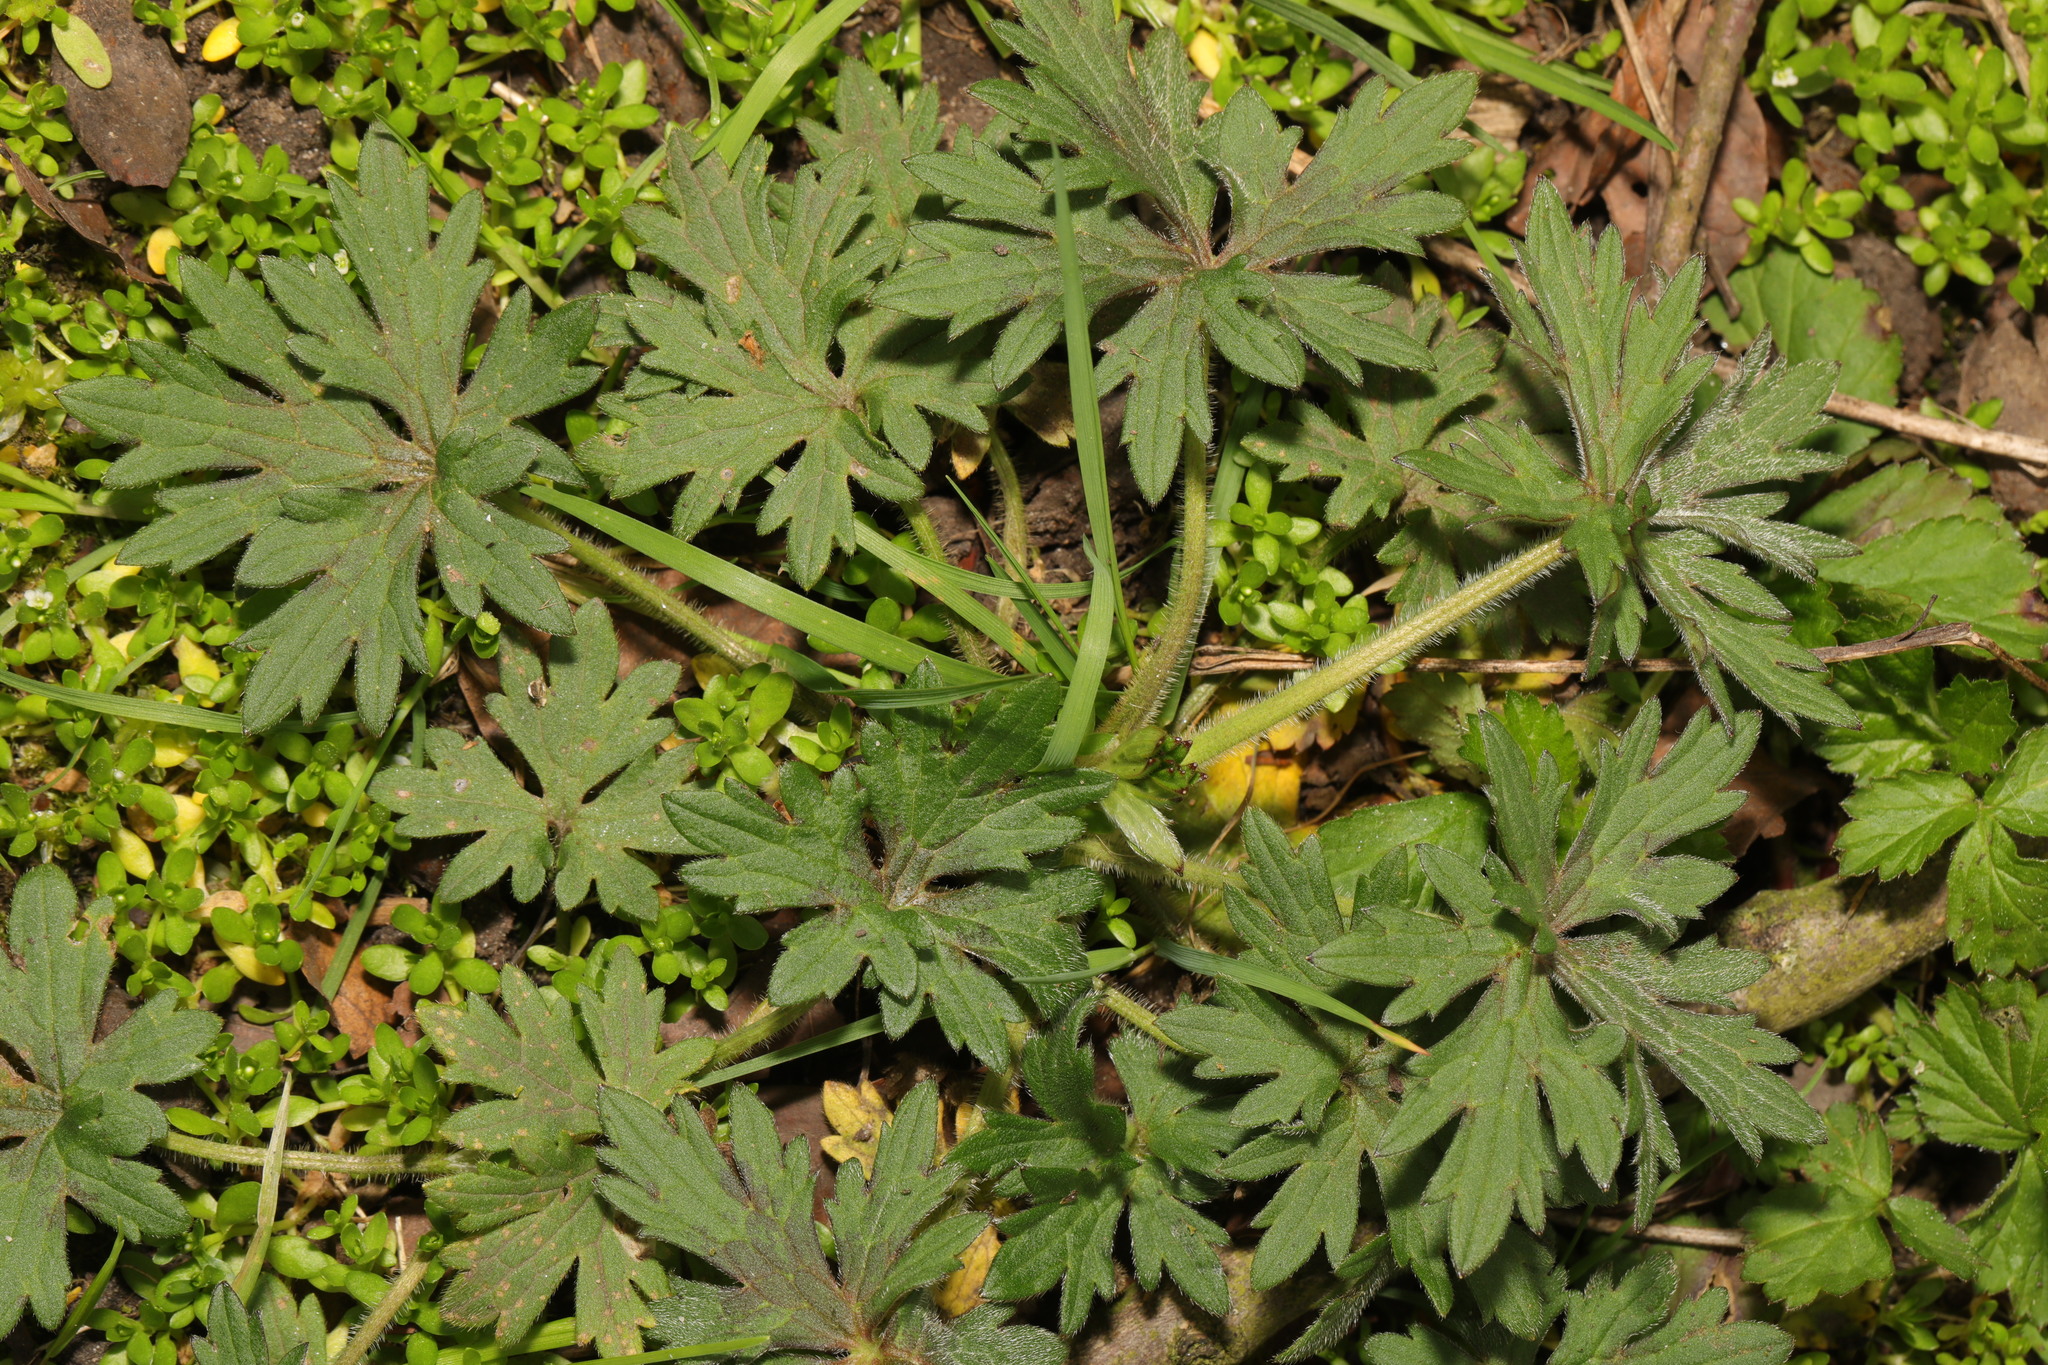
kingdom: Plantae
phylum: Tracheophyta
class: Magnoliopsida
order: Ranunculales
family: Ranunculaceae
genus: Ranunculus
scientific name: Ranunculus acris
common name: Meadow buttercup
